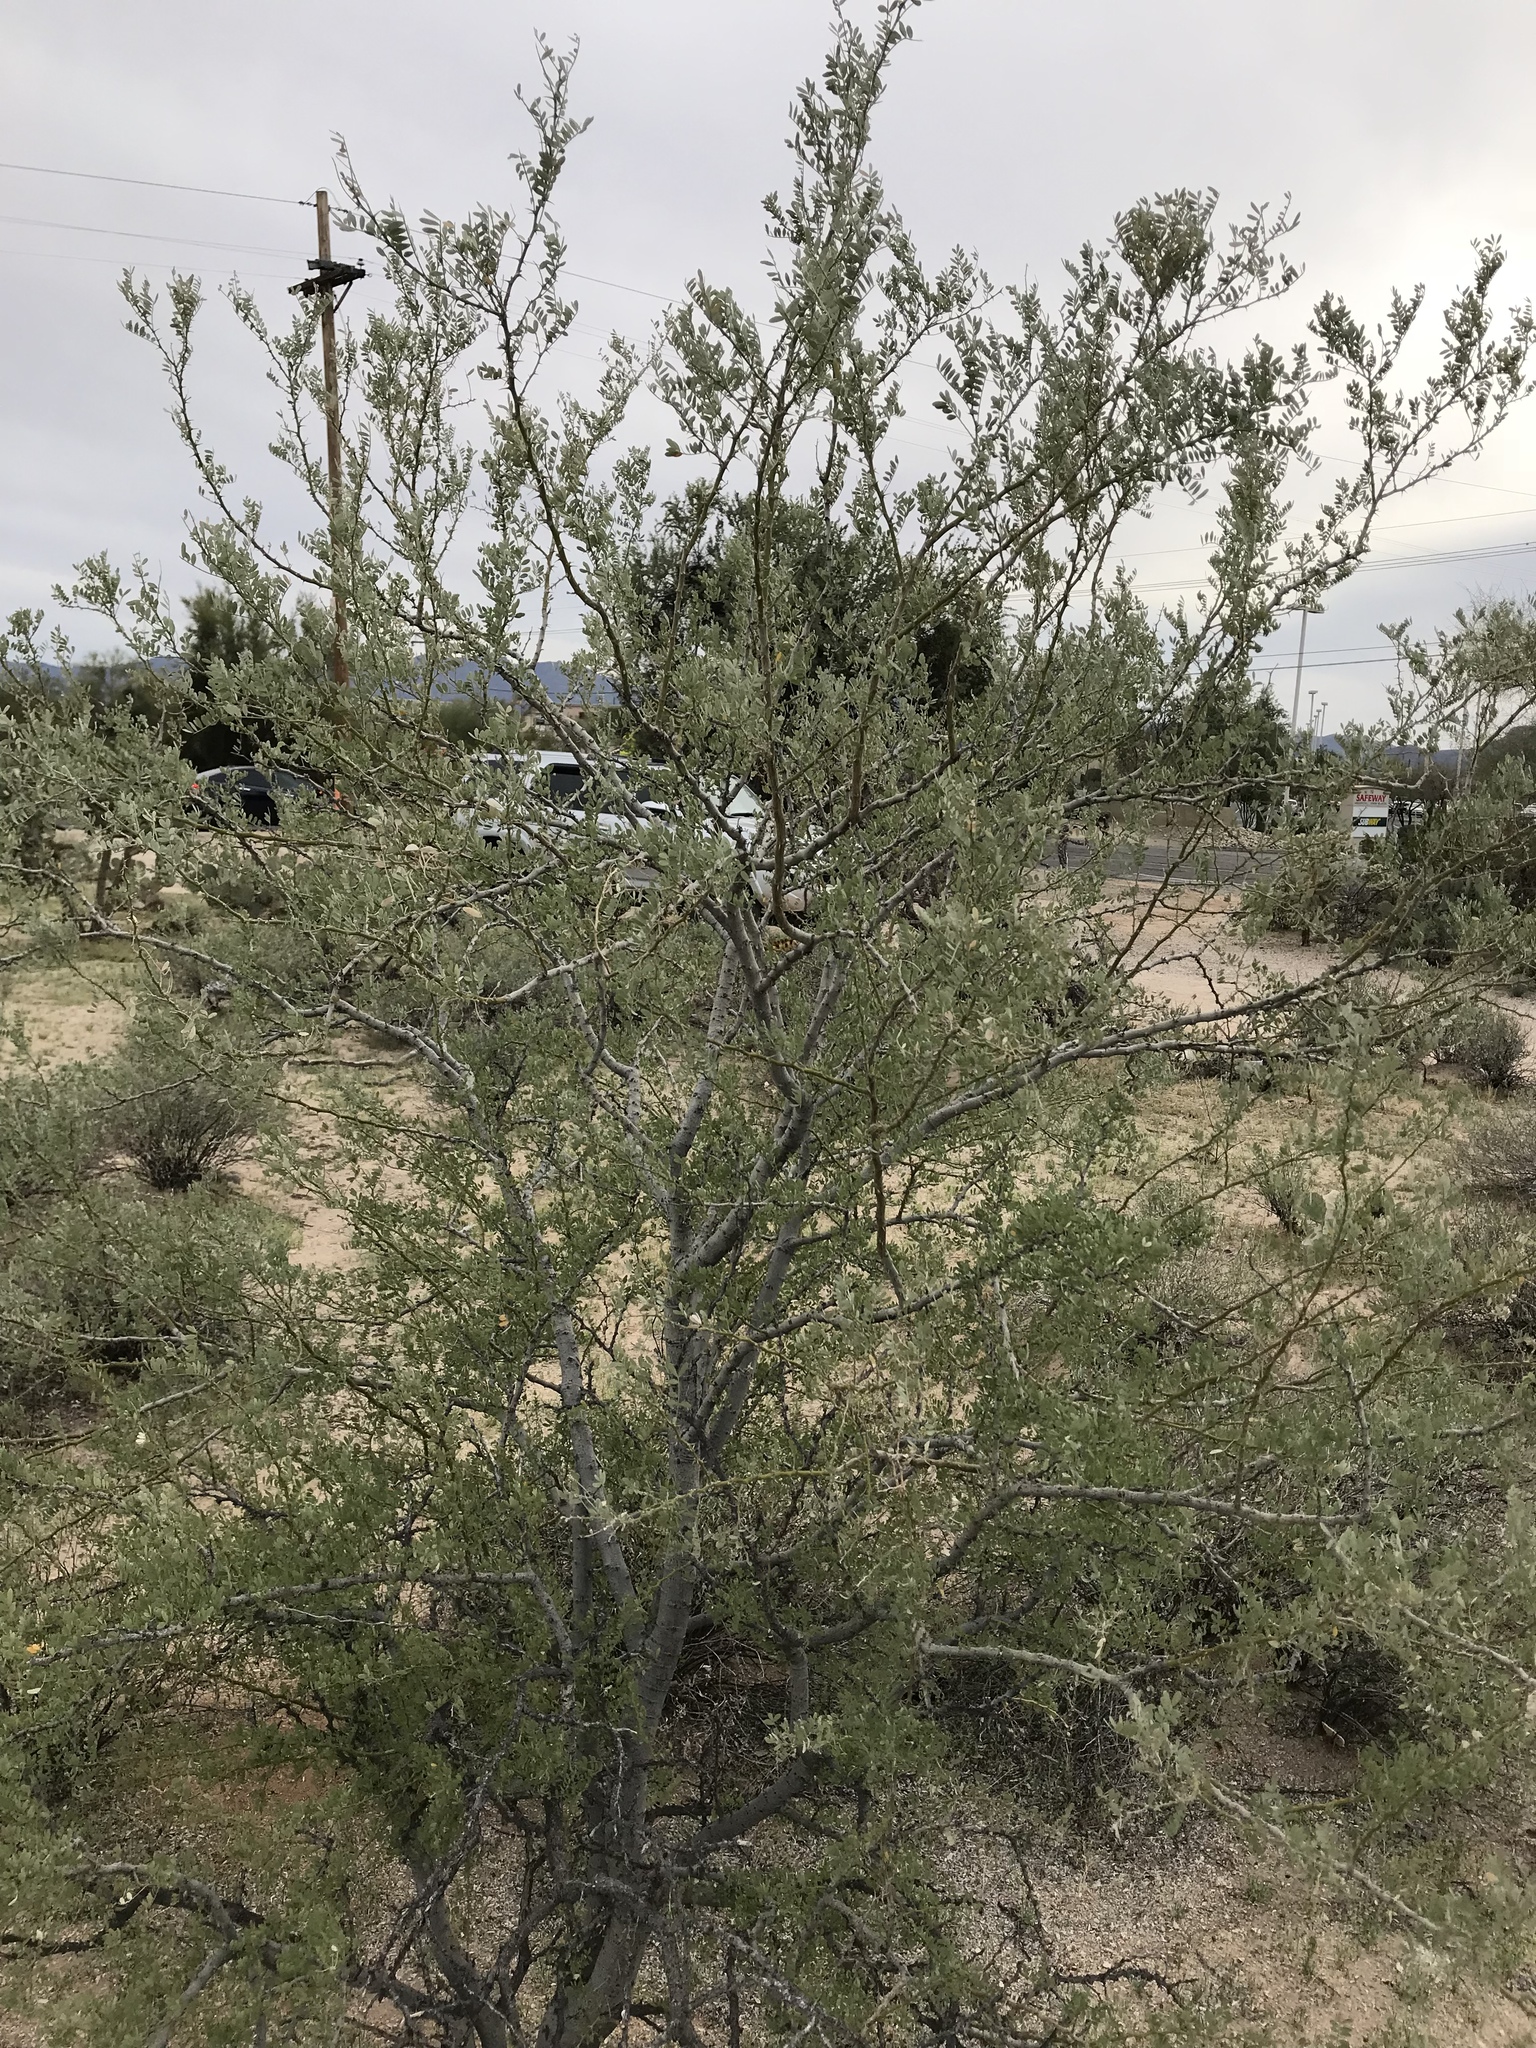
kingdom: Plantae
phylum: Tracheophyta
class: Magnoliopsida
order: Fabales
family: Fabaceae
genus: Olneya
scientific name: Olneya tesota
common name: Desert ironwood
